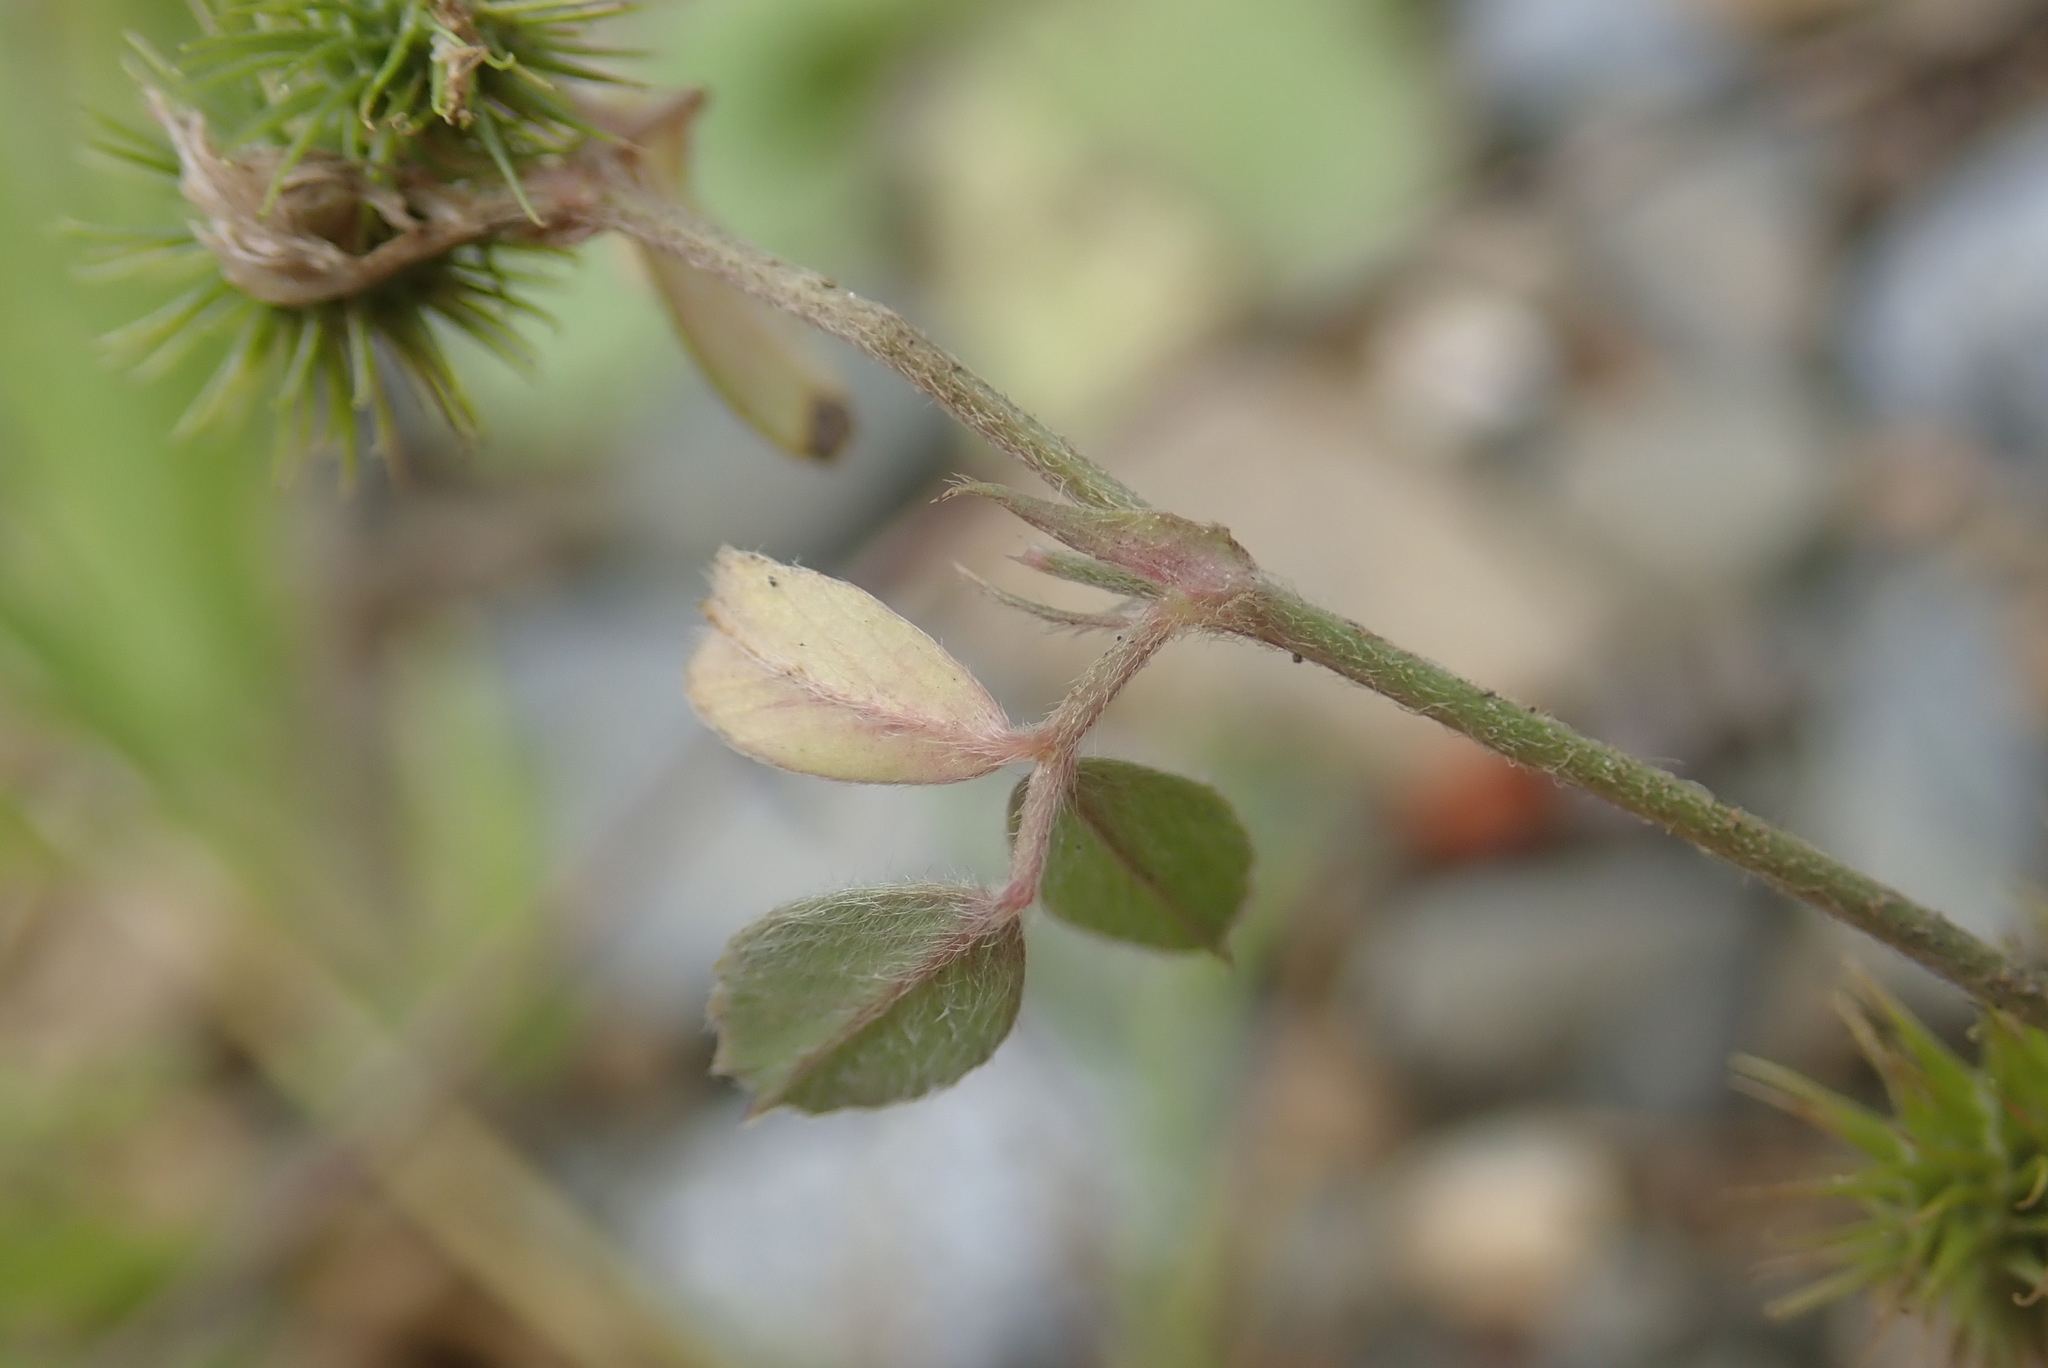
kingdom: Plantae
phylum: Tracheophyta
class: Magnoliopsida
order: Fabales
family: Fabaceae
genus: Medicago
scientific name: Medicago minima
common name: Little bur-clover
